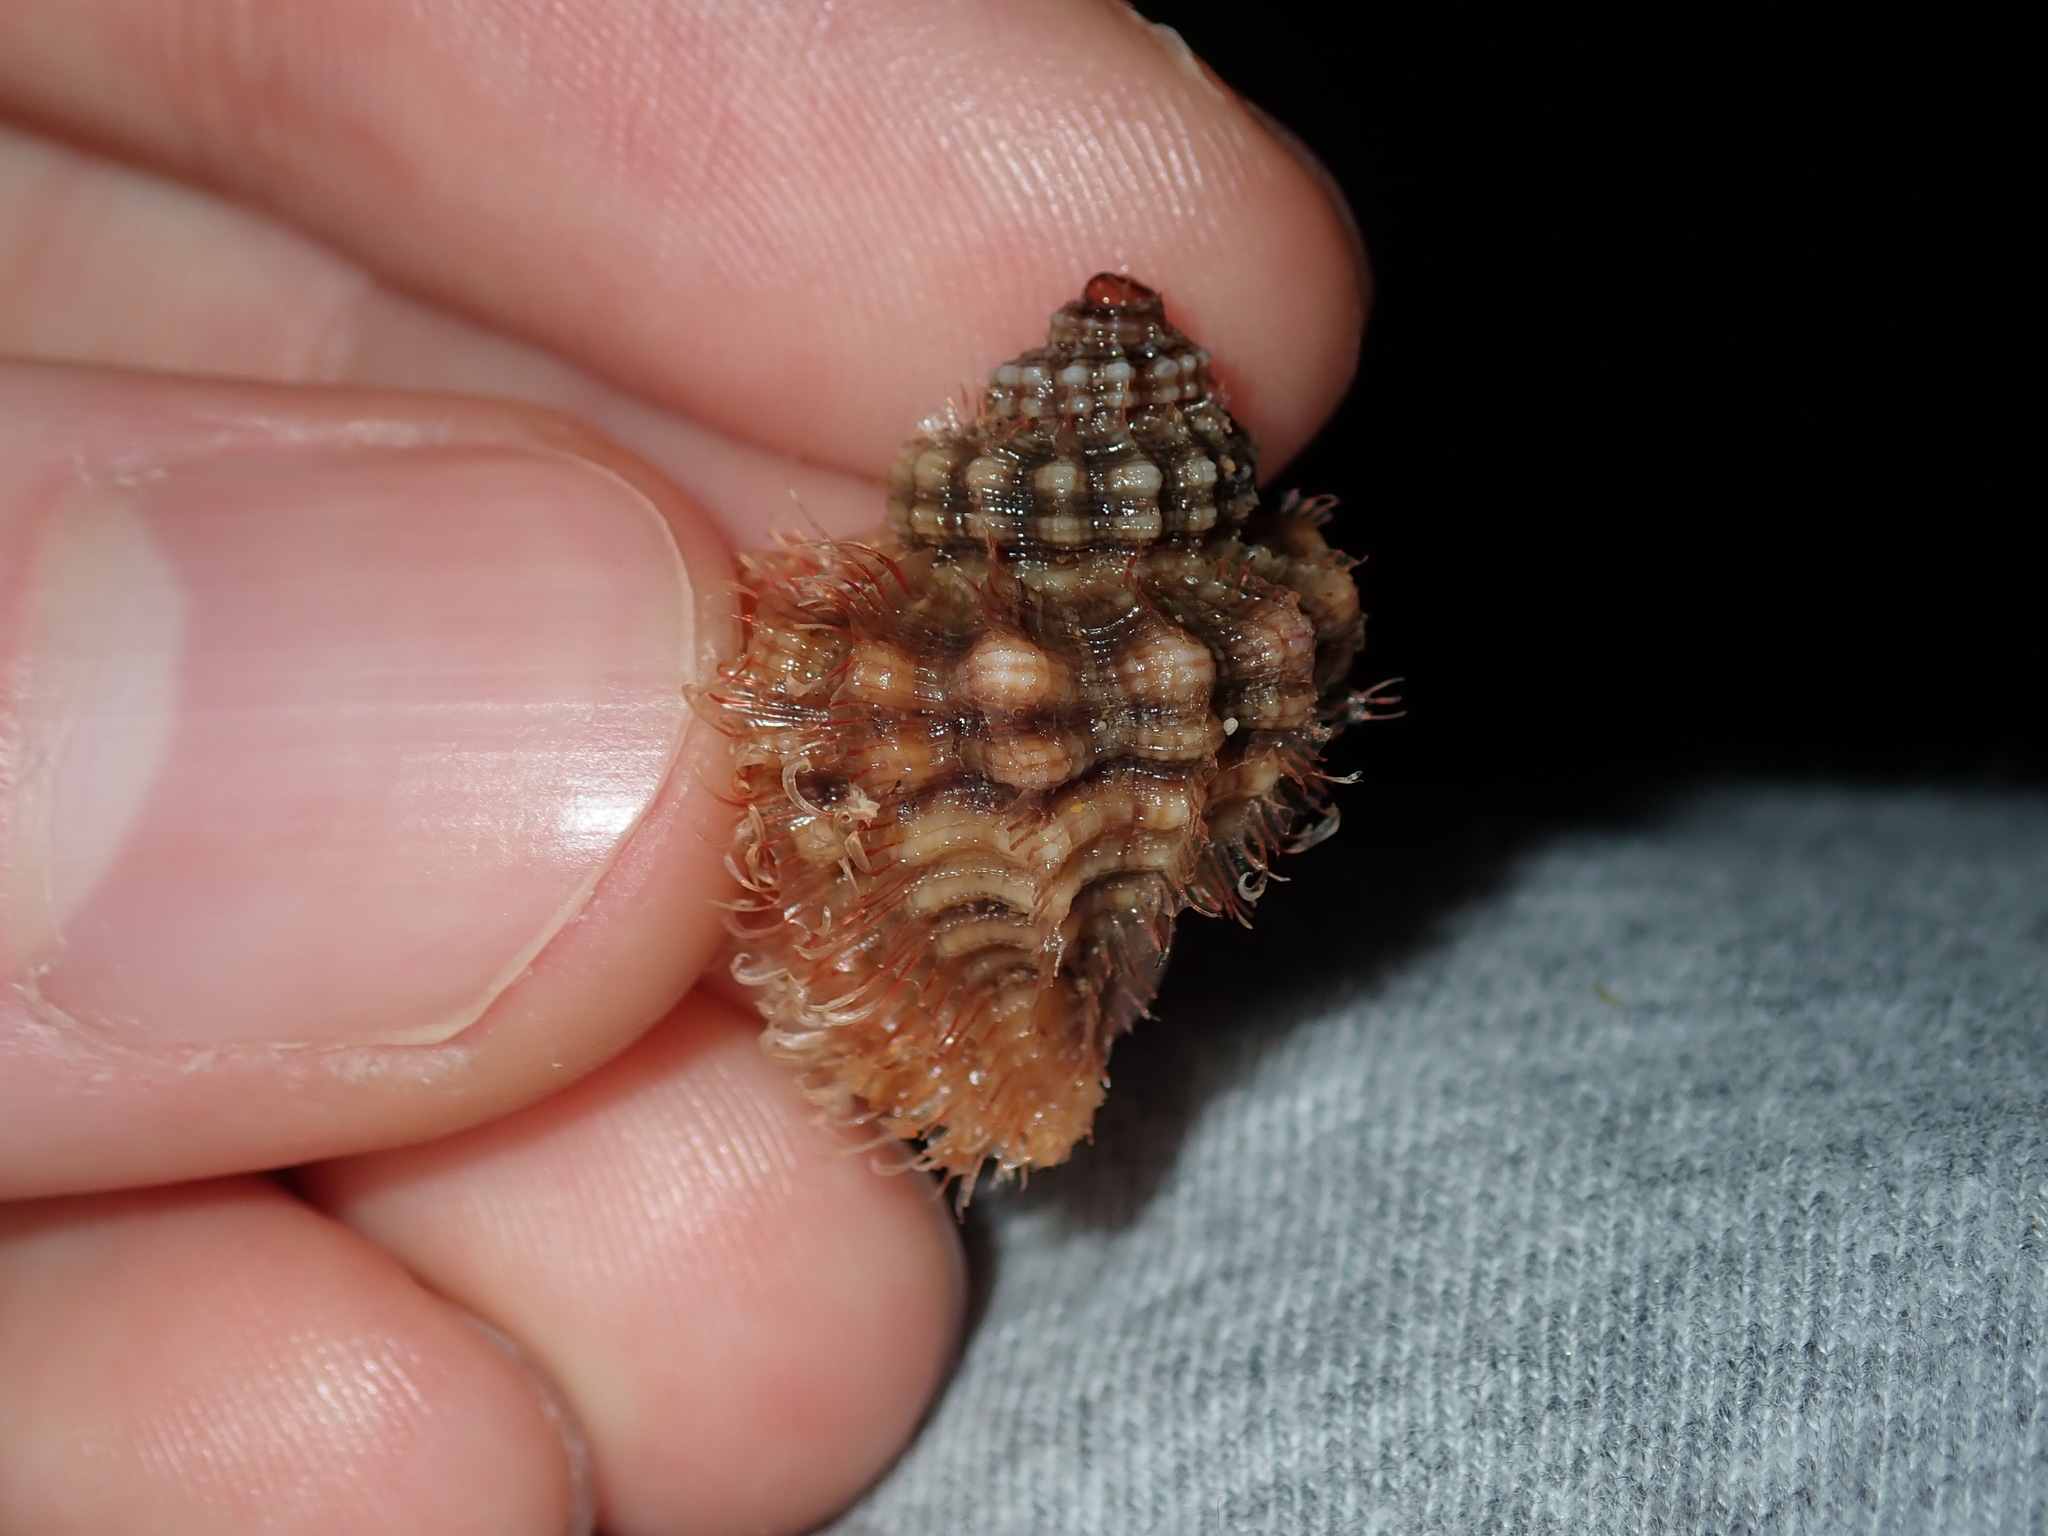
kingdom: Animalia
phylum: Mollusca
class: Gastropoda
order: Littorinimorpha
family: Cymatiidae
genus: Turritriton
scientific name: Turritriton labiosus
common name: Lip triton
